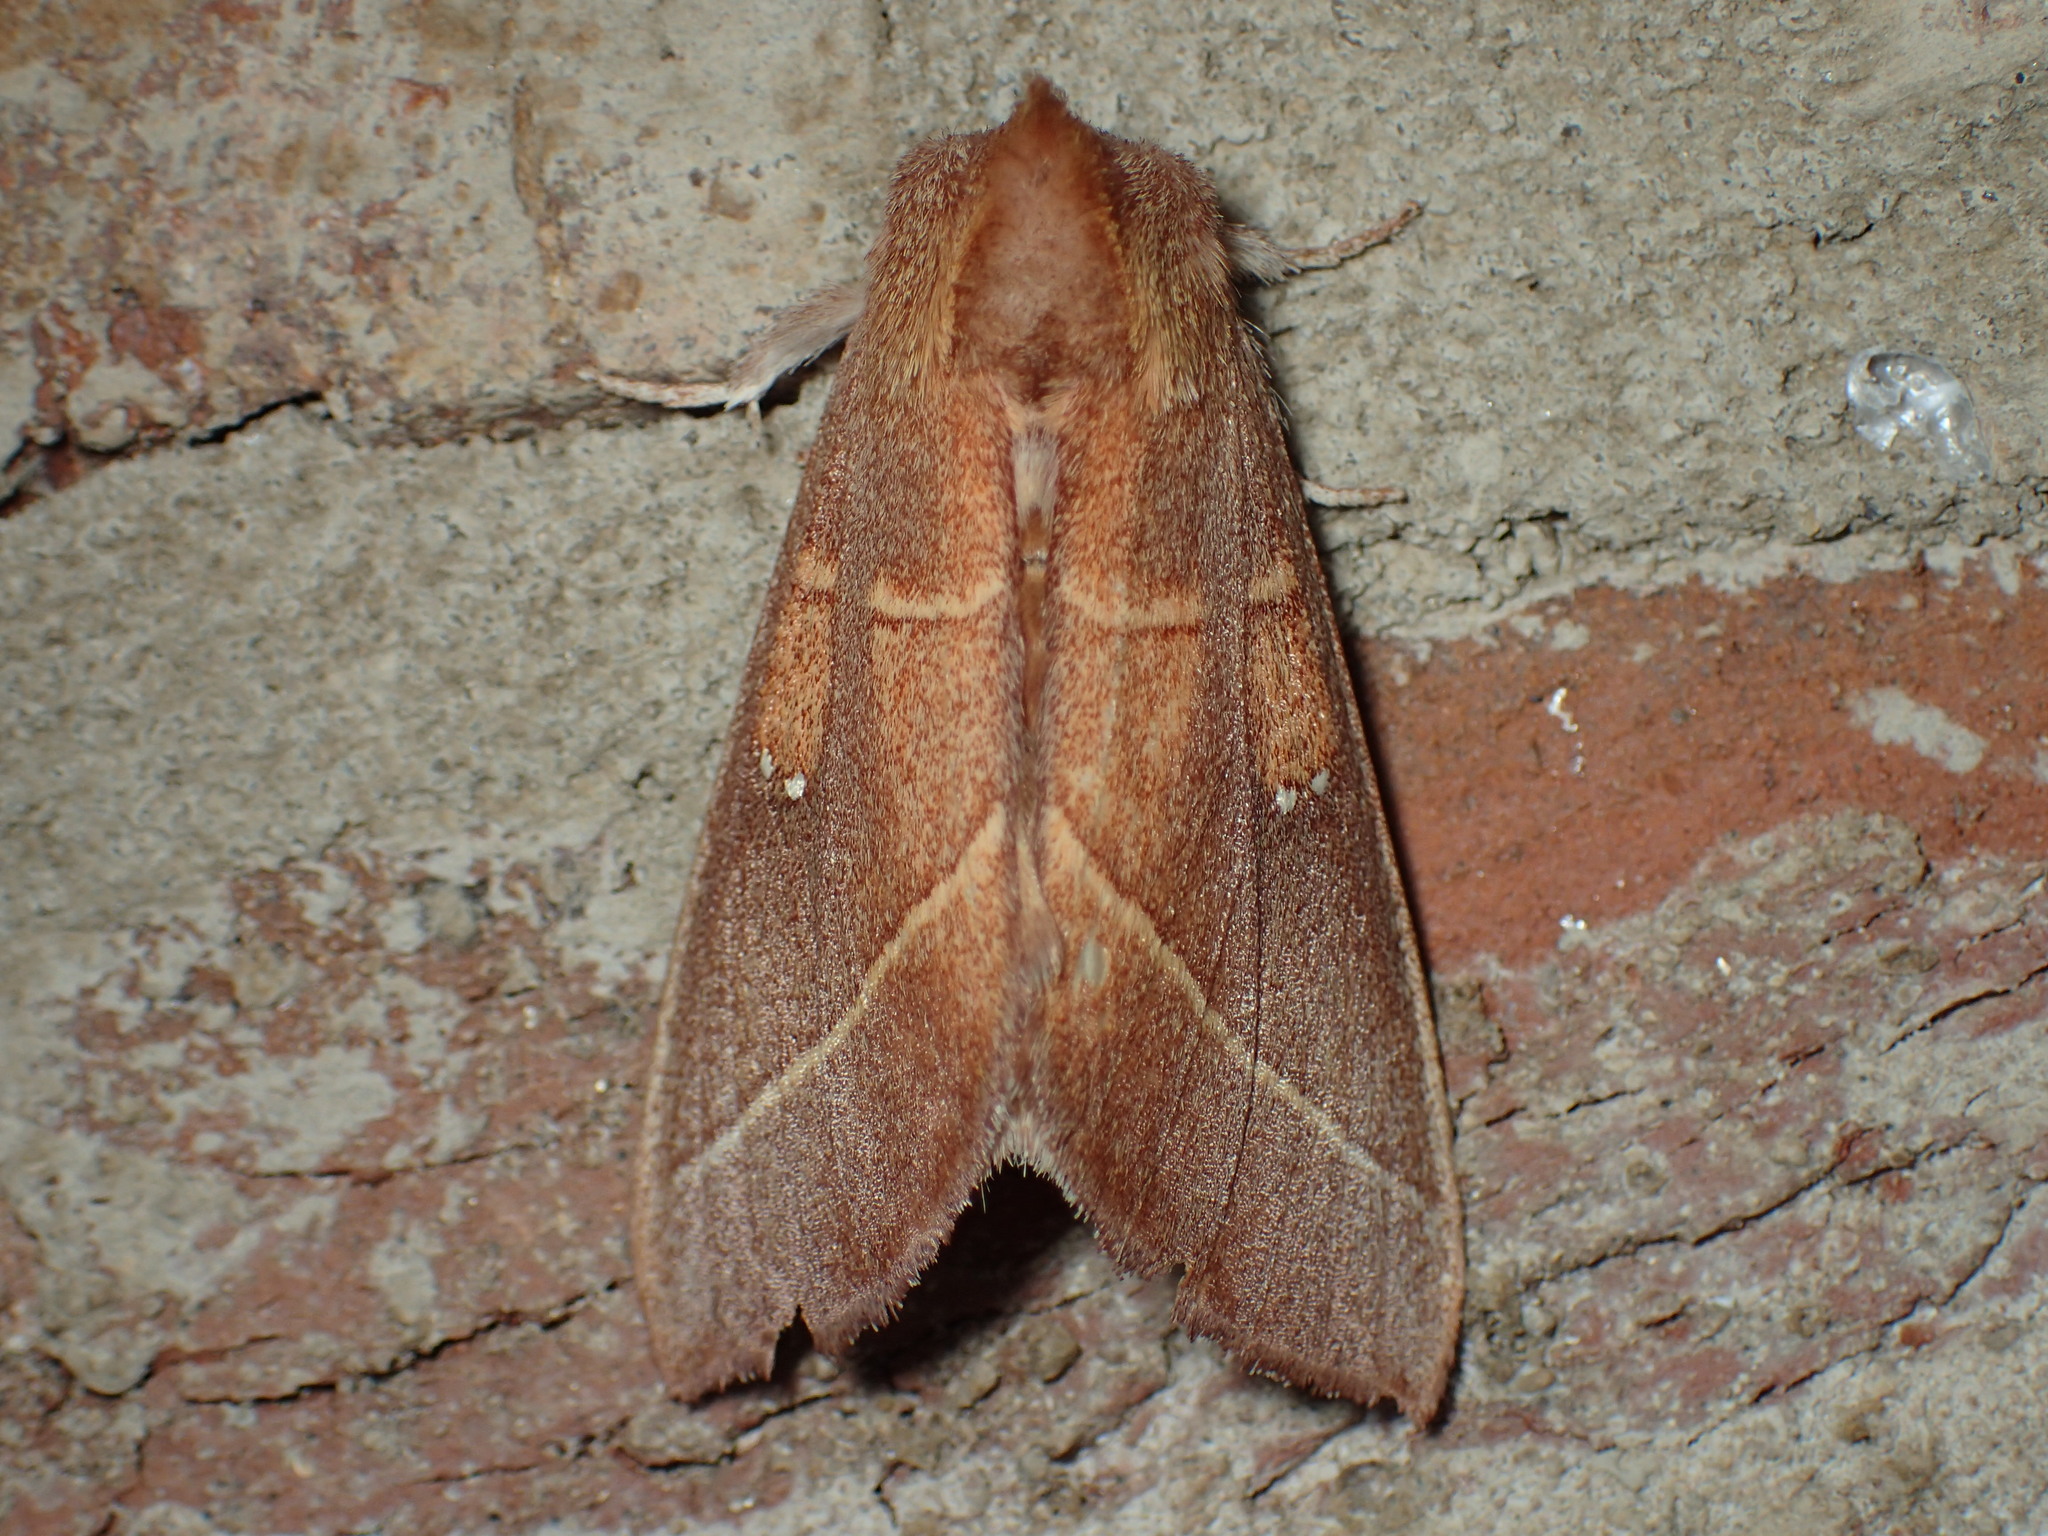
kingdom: Animalia
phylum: Arthropoda
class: Insecta
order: Lepidoptera
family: Notodontidae
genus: Nadata
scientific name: Nadata gibbosa
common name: White-dotted prominent
